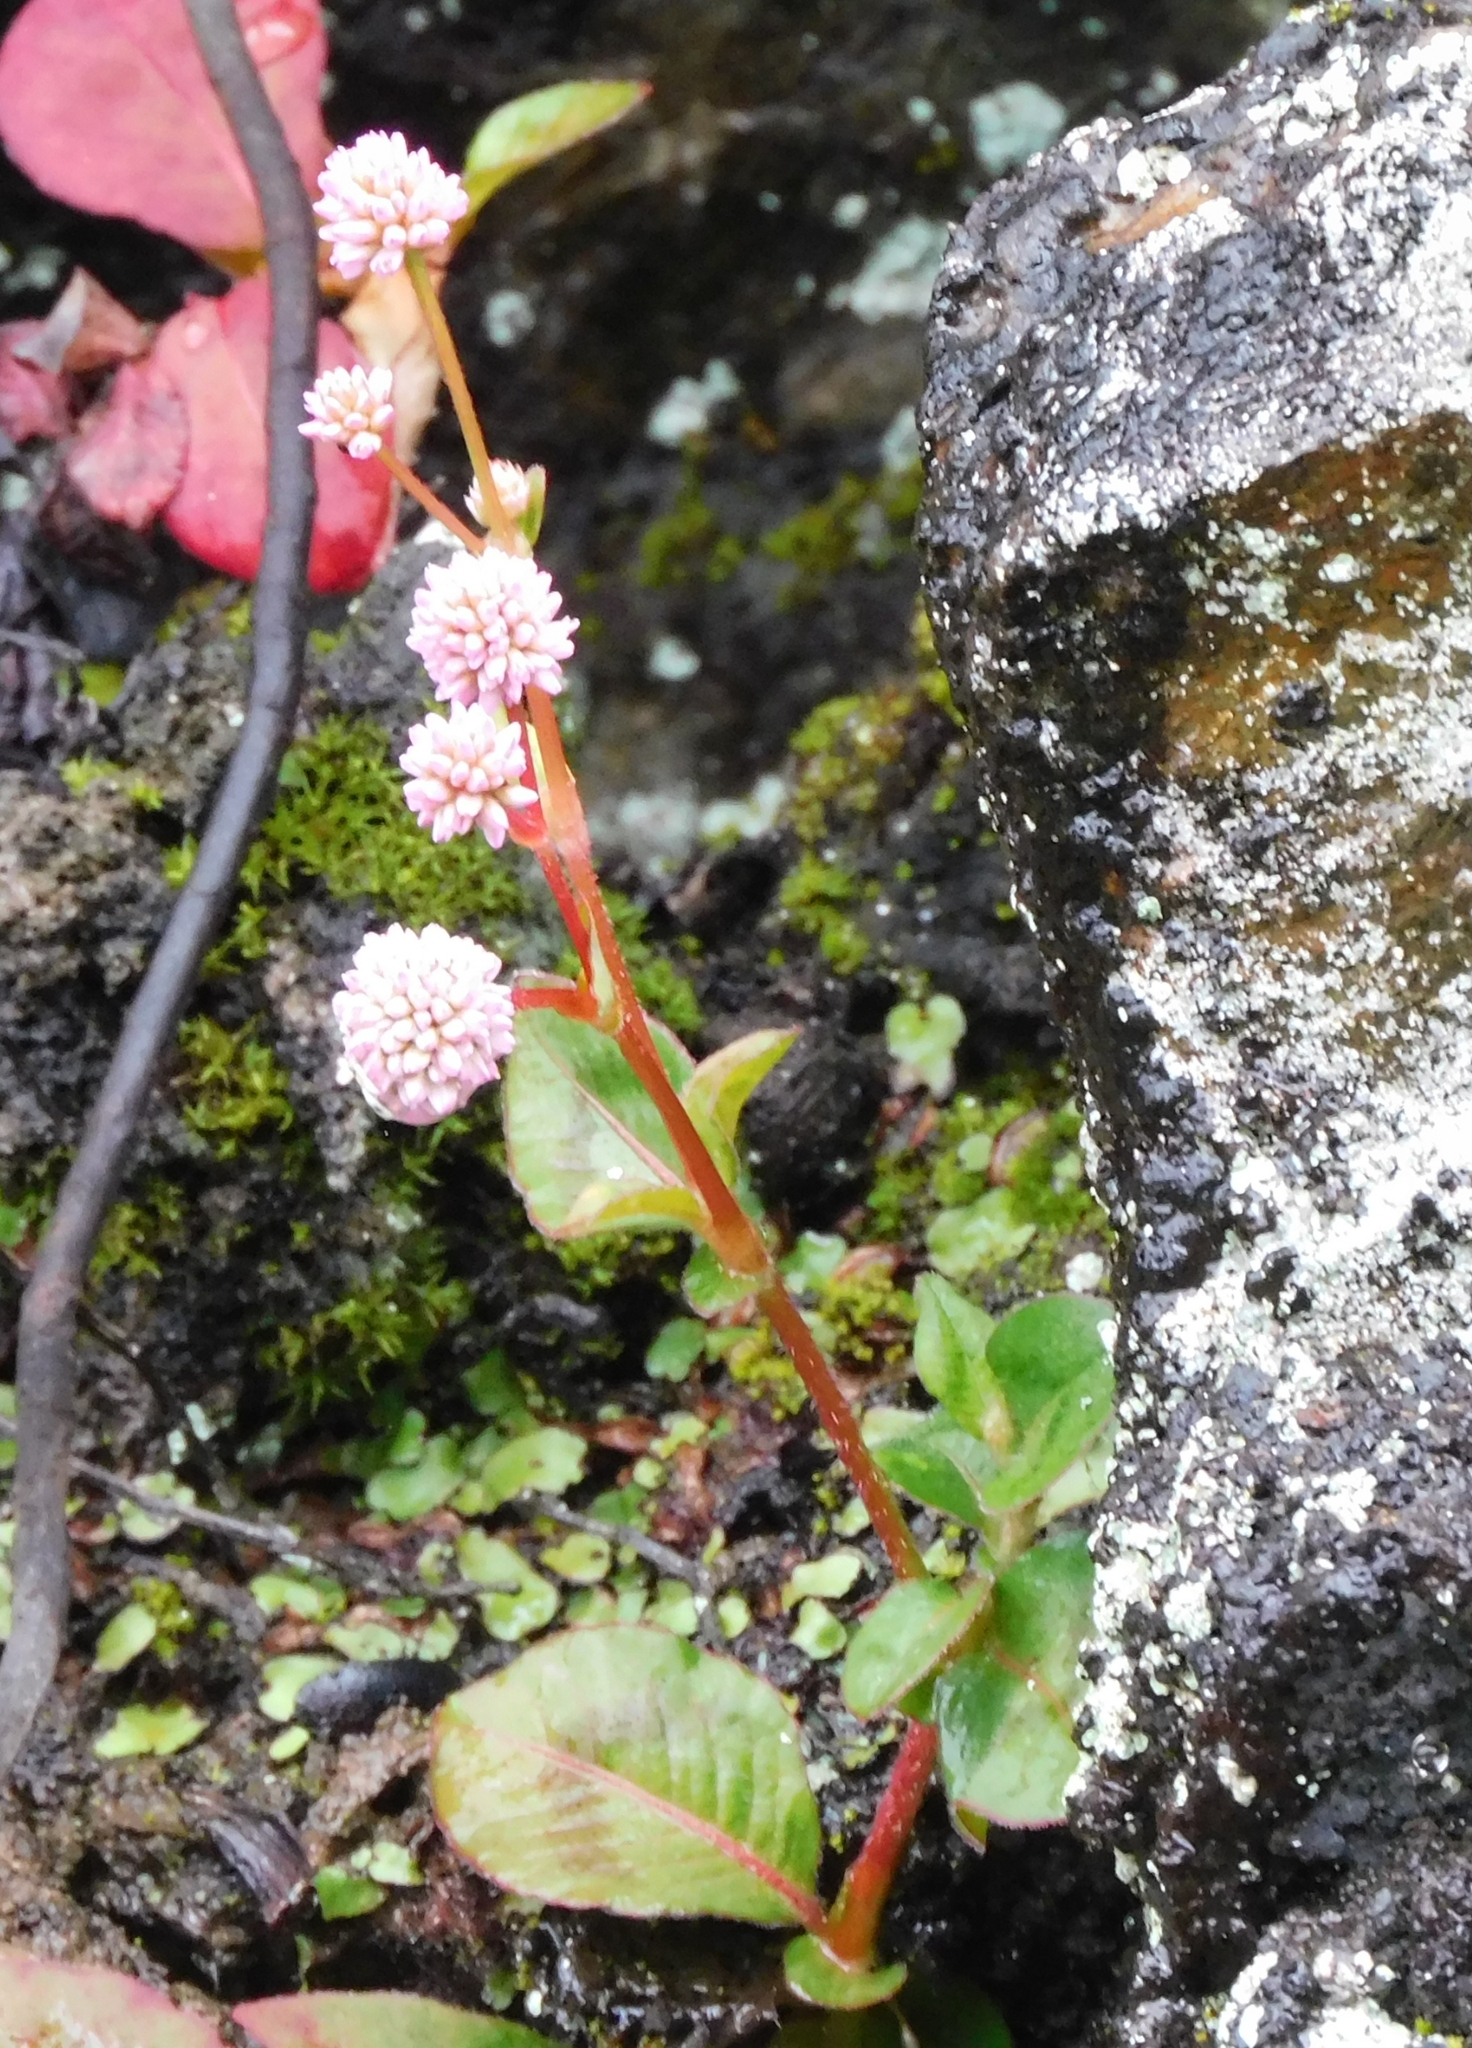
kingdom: Plantae
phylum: Tracheophyta
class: Magnoliopsida
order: Caryophyllales
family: Polygonaceae
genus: Persicaria
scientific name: Persicaria capitata
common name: Pinkhead smartweed
